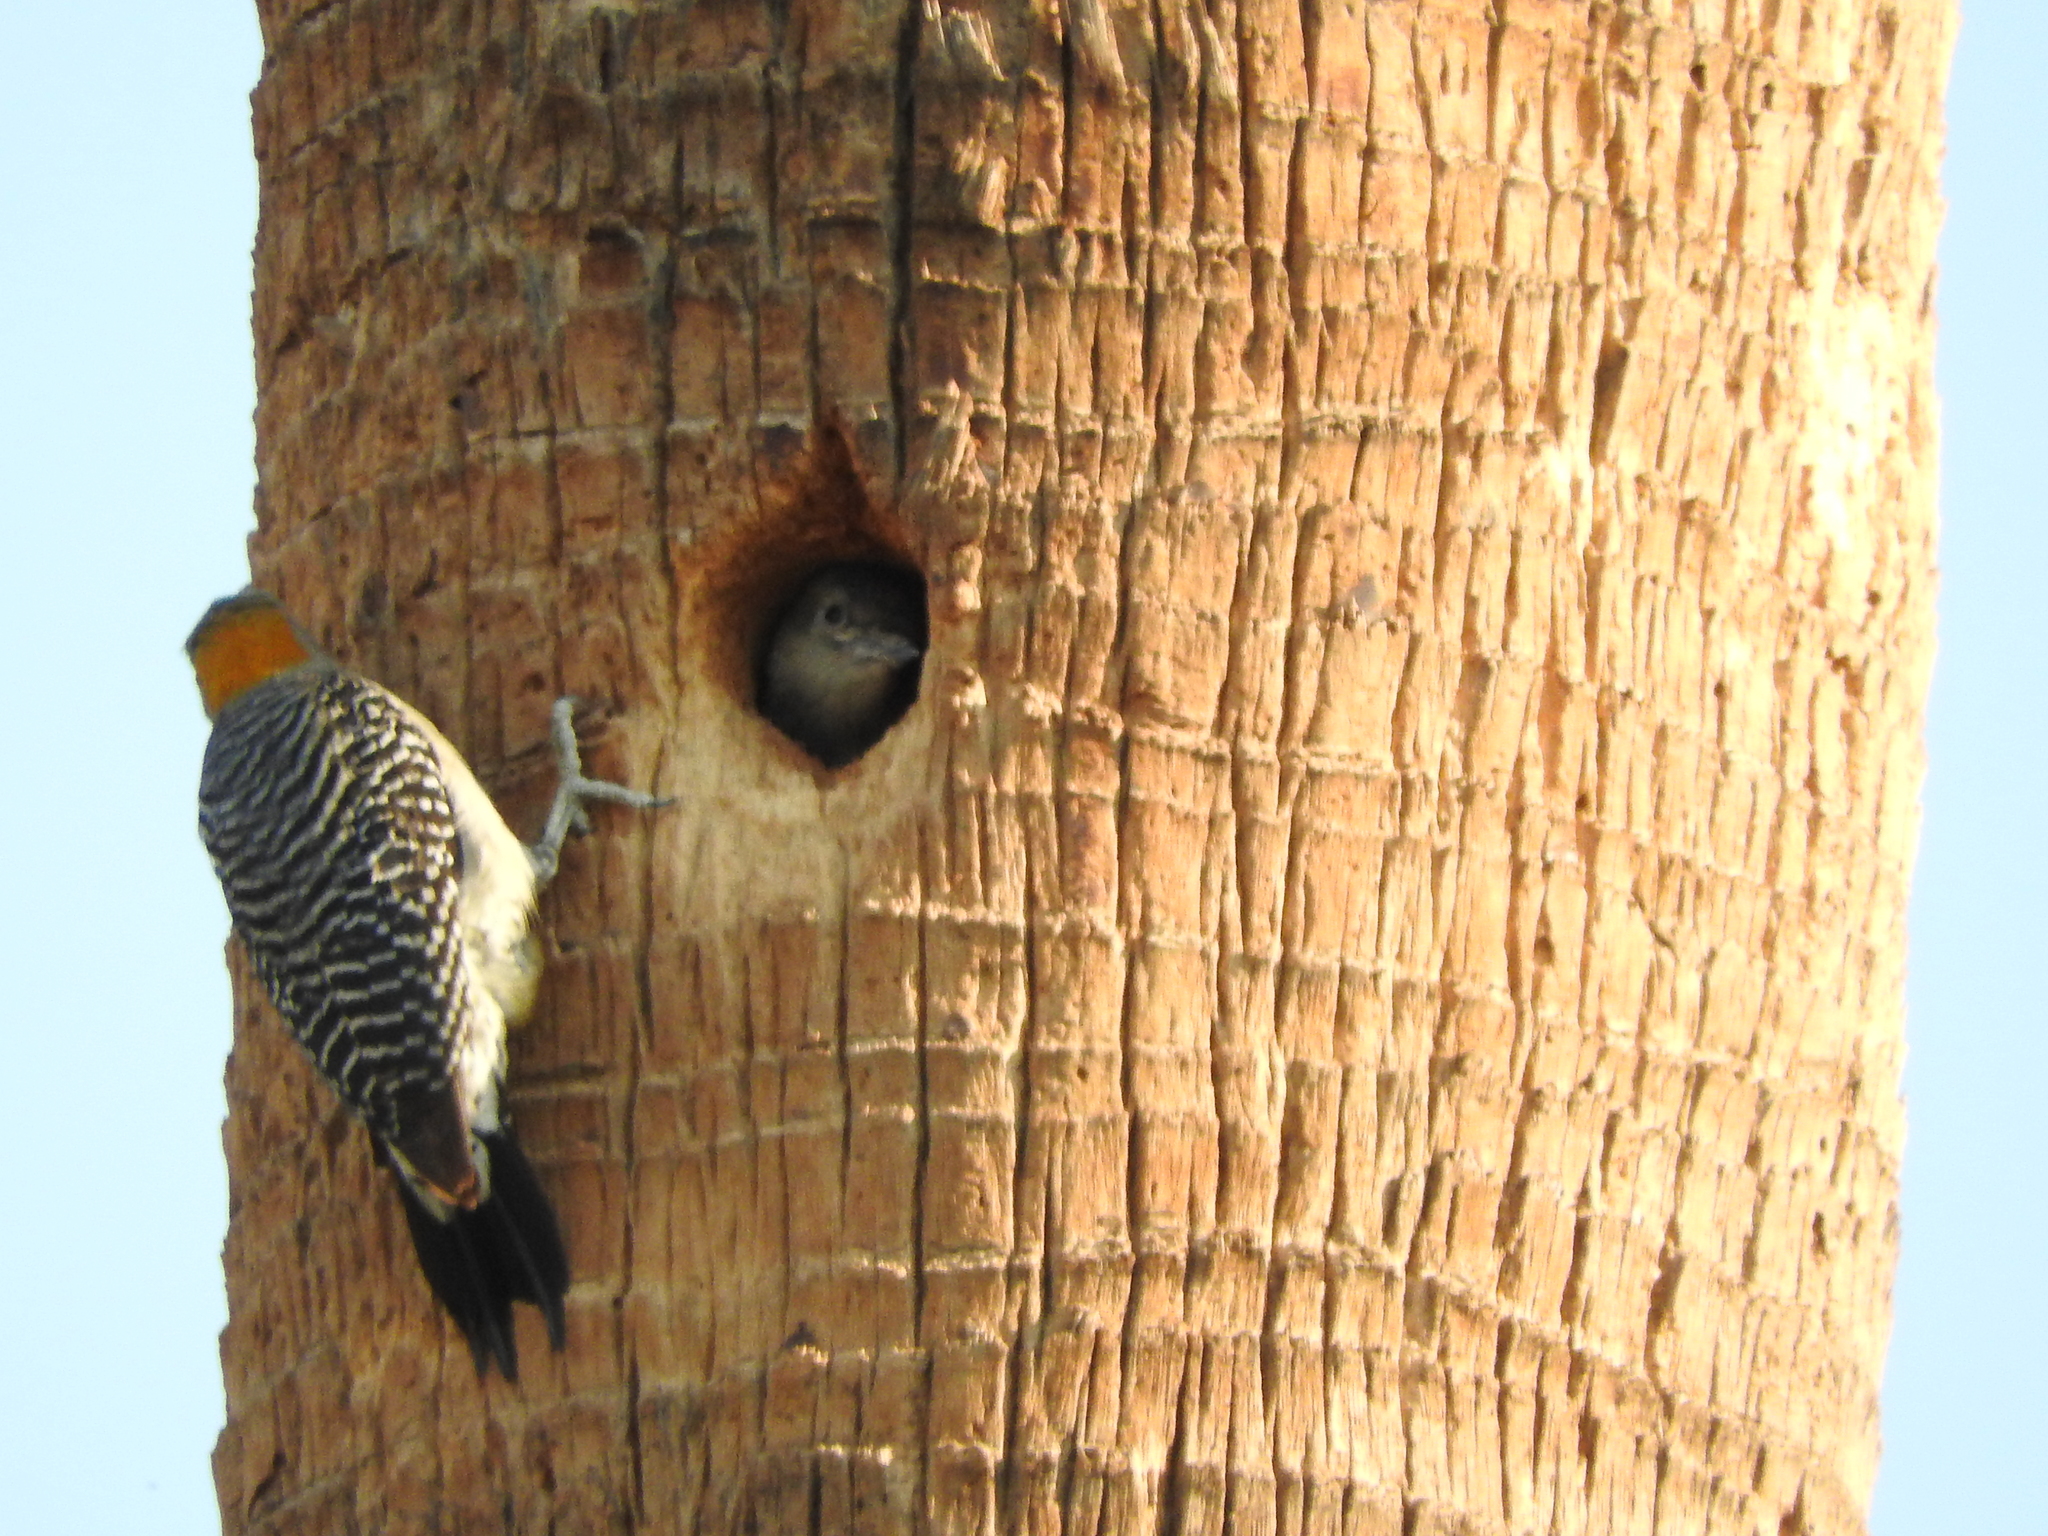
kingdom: Animalia
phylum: Chordata
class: Aves
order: Piciformes
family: Picidae
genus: Melanerpes
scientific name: Melanerpes aurifrons
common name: Golden-fronted woodpecker
